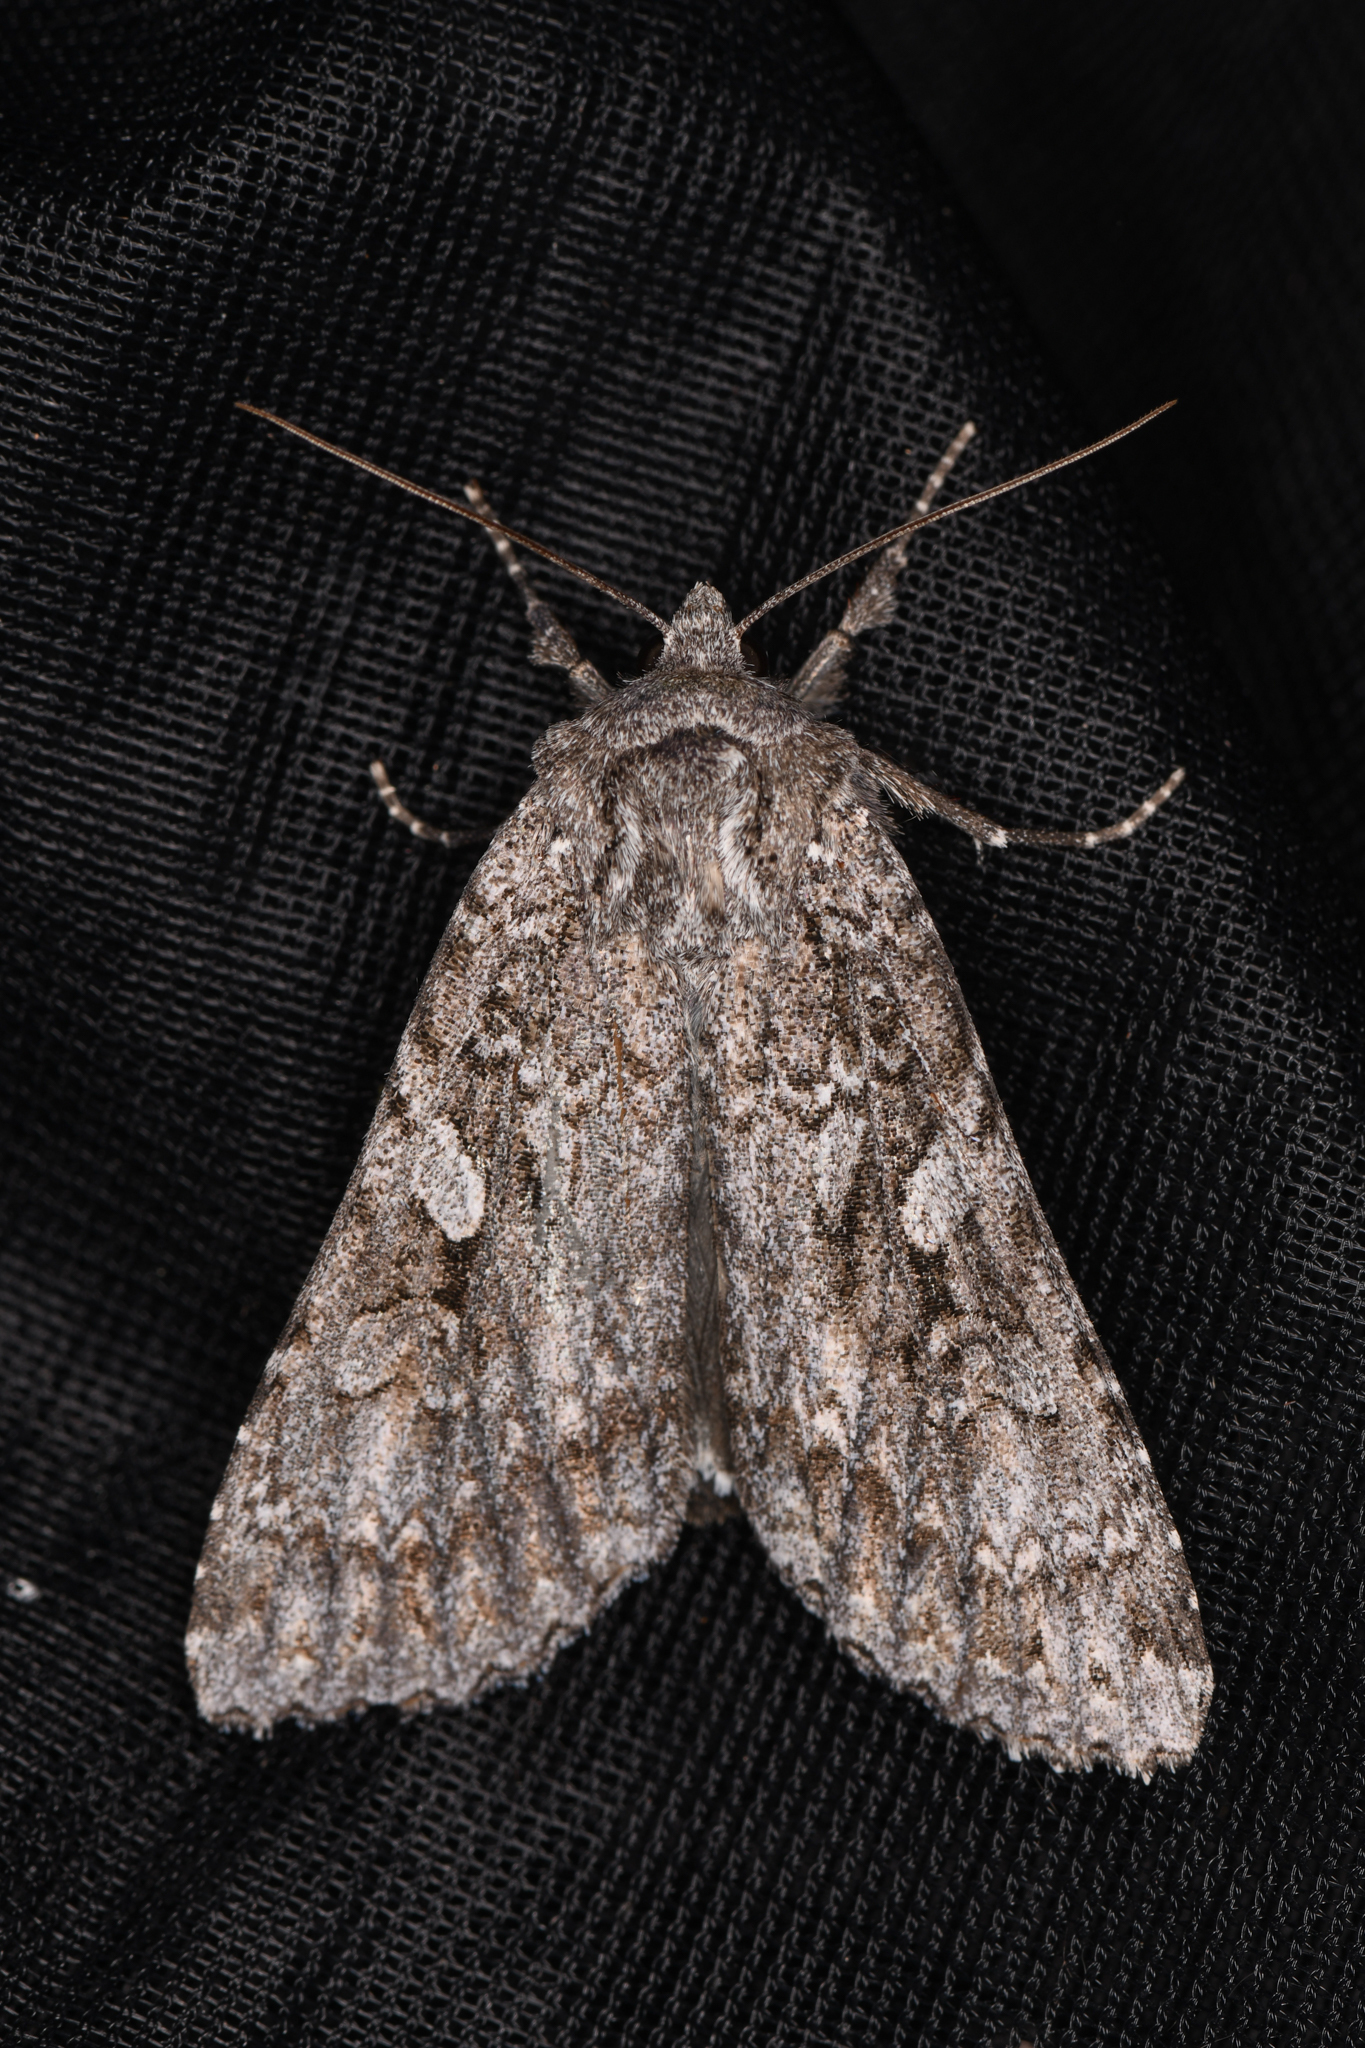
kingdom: Animalia
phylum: Arthropoda
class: Insecta
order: Lepidoptera
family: Noctuidae
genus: Eurois
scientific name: Eurois occulta
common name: Great brocade
